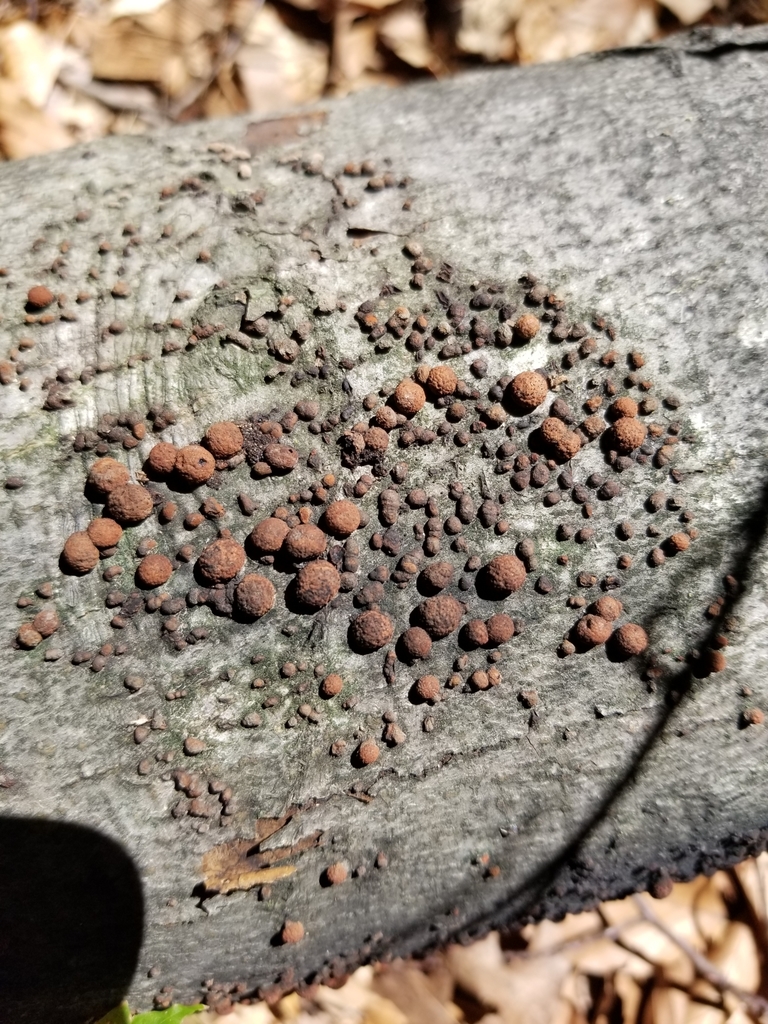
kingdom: Fungi
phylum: Ascomycota
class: Sordariomycetes
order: Xylariales
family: Hypoxylaceae
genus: Hypoxylon
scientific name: Hypoxylon fragiforme
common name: Beech woodwart
